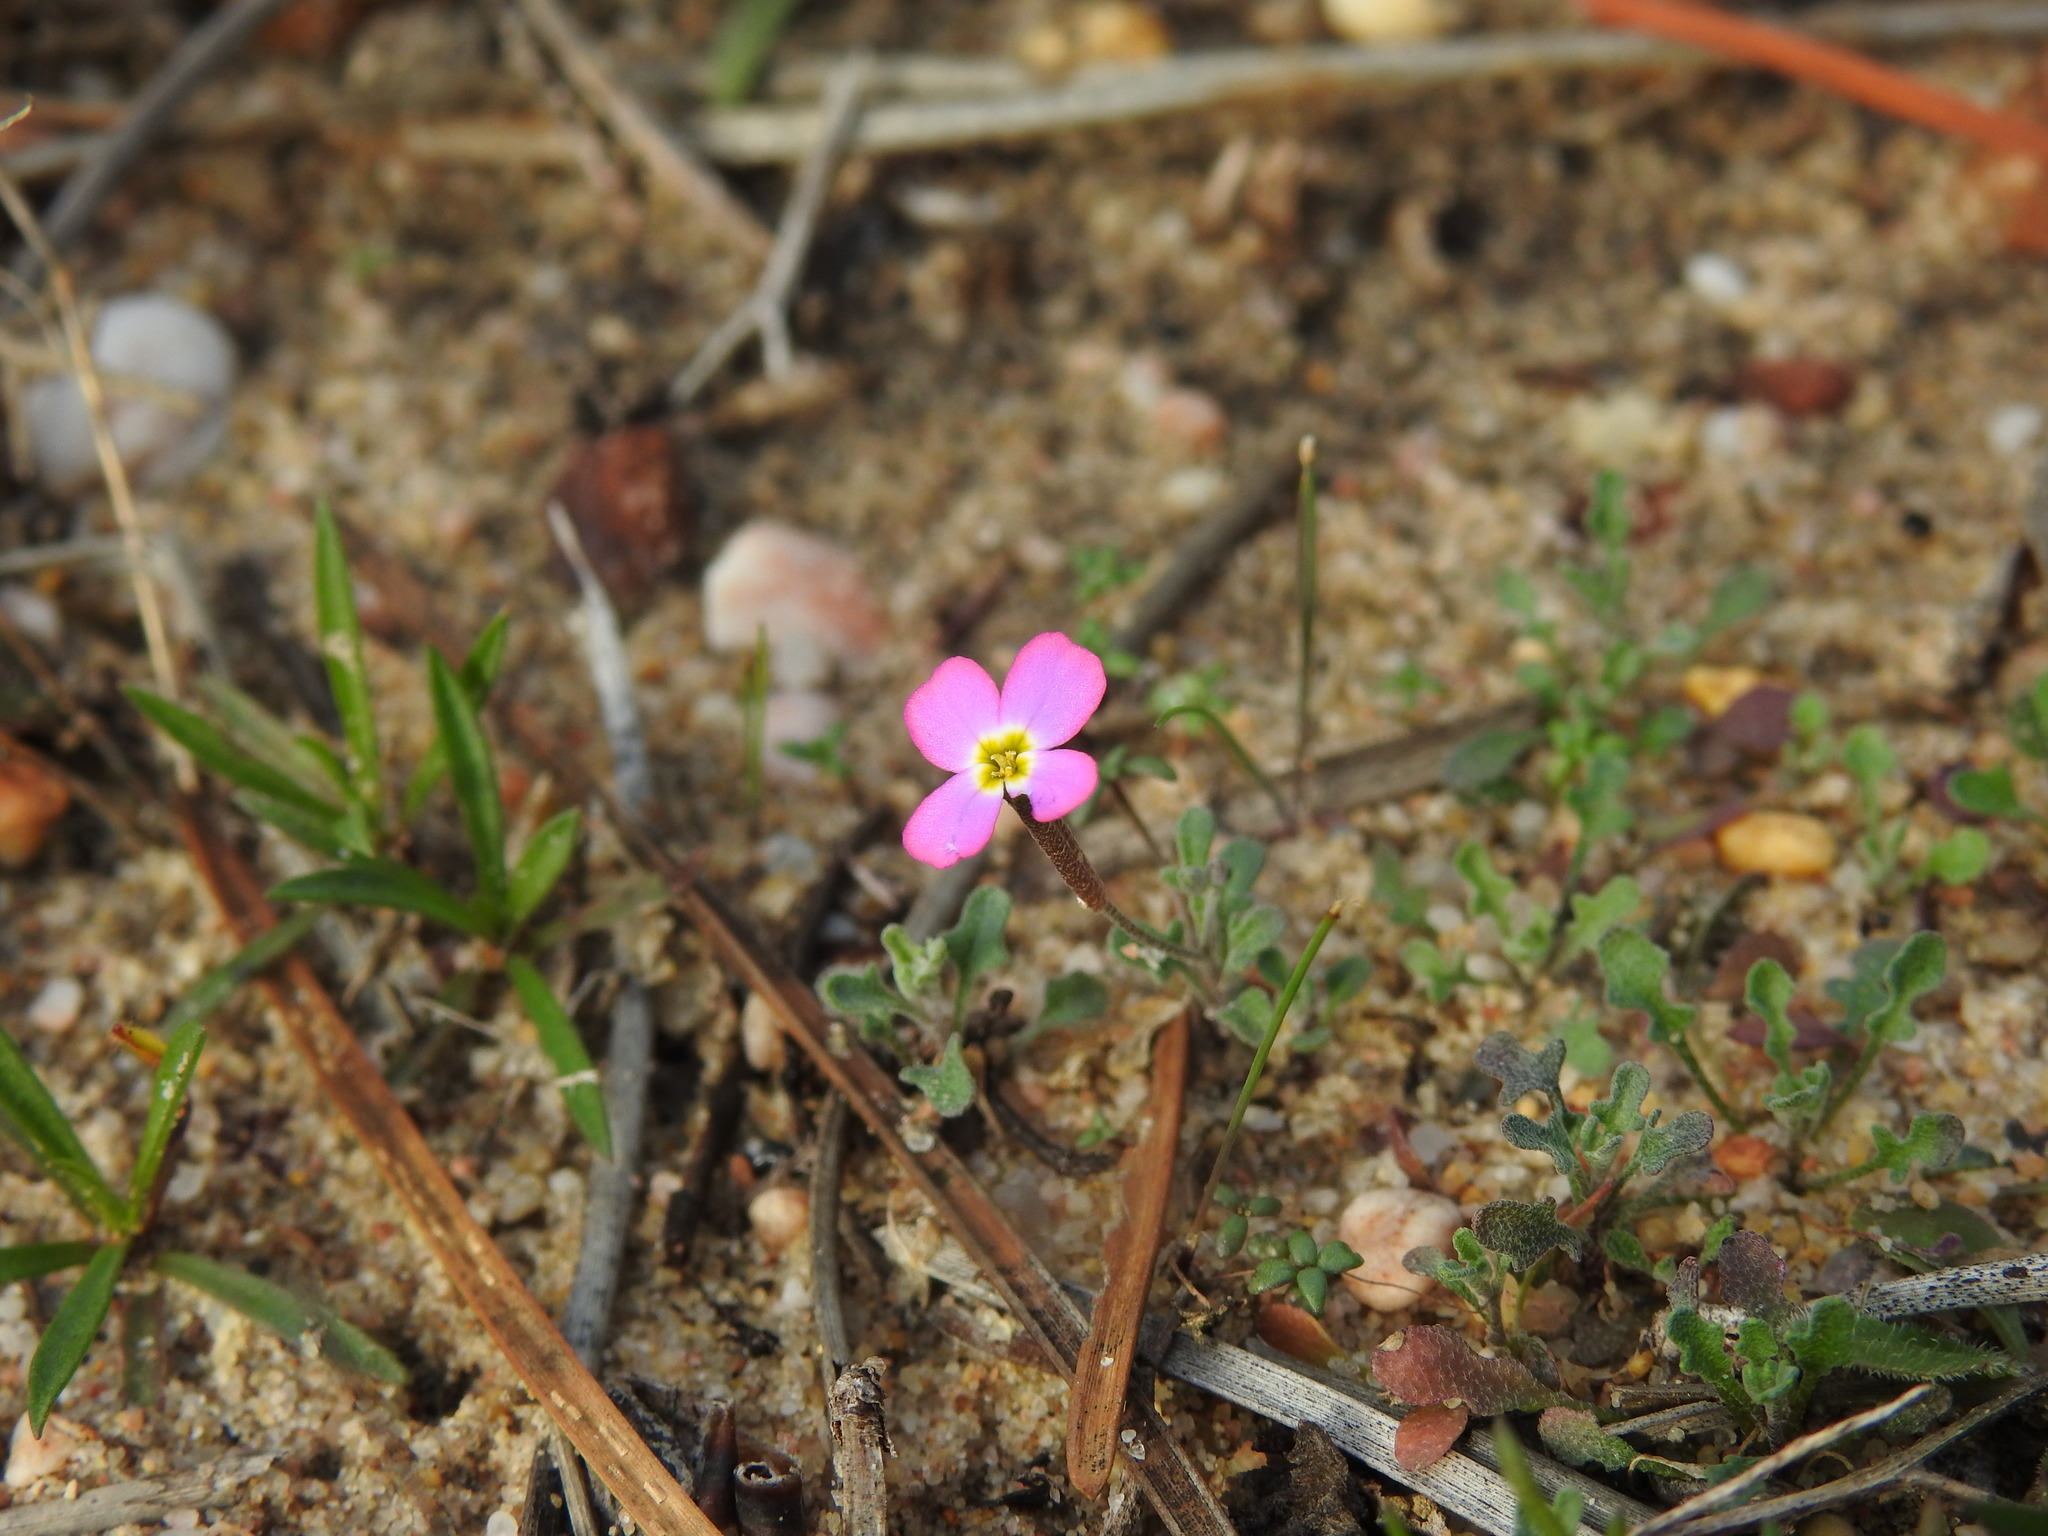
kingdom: Plantae
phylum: Tracheophyta
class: Magnoliopsida
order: Brassicales
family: Brassicaceae
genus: Marcuskochia
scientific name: Marcuskochia triloba
